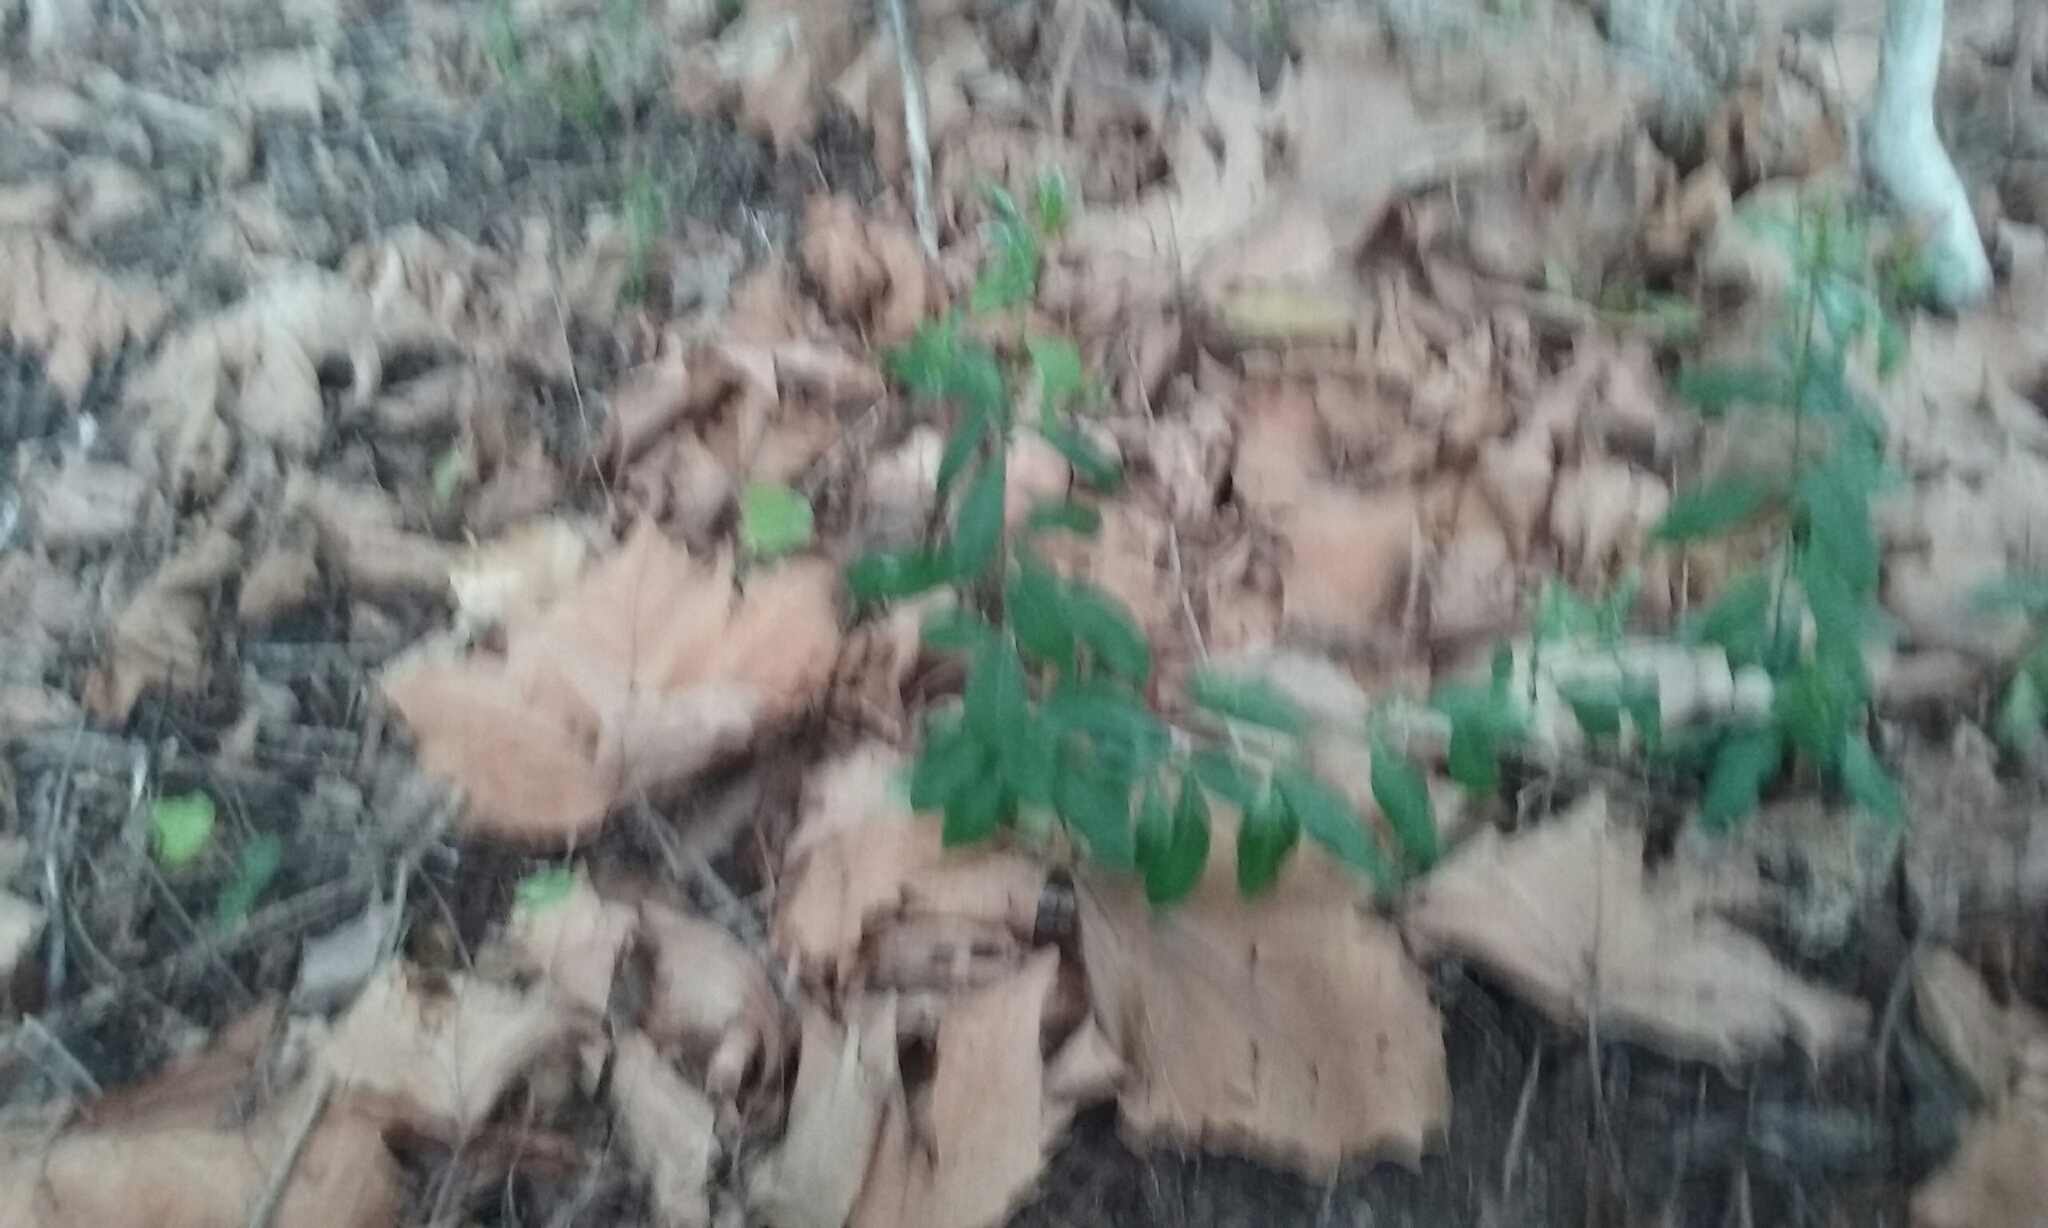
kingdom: Plantae
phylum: Tracheophyta
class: Magnoliopsida
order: Celastrales
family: Celastraceae
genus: Maytenus
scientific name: Maytenus boaria
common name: Mayten
